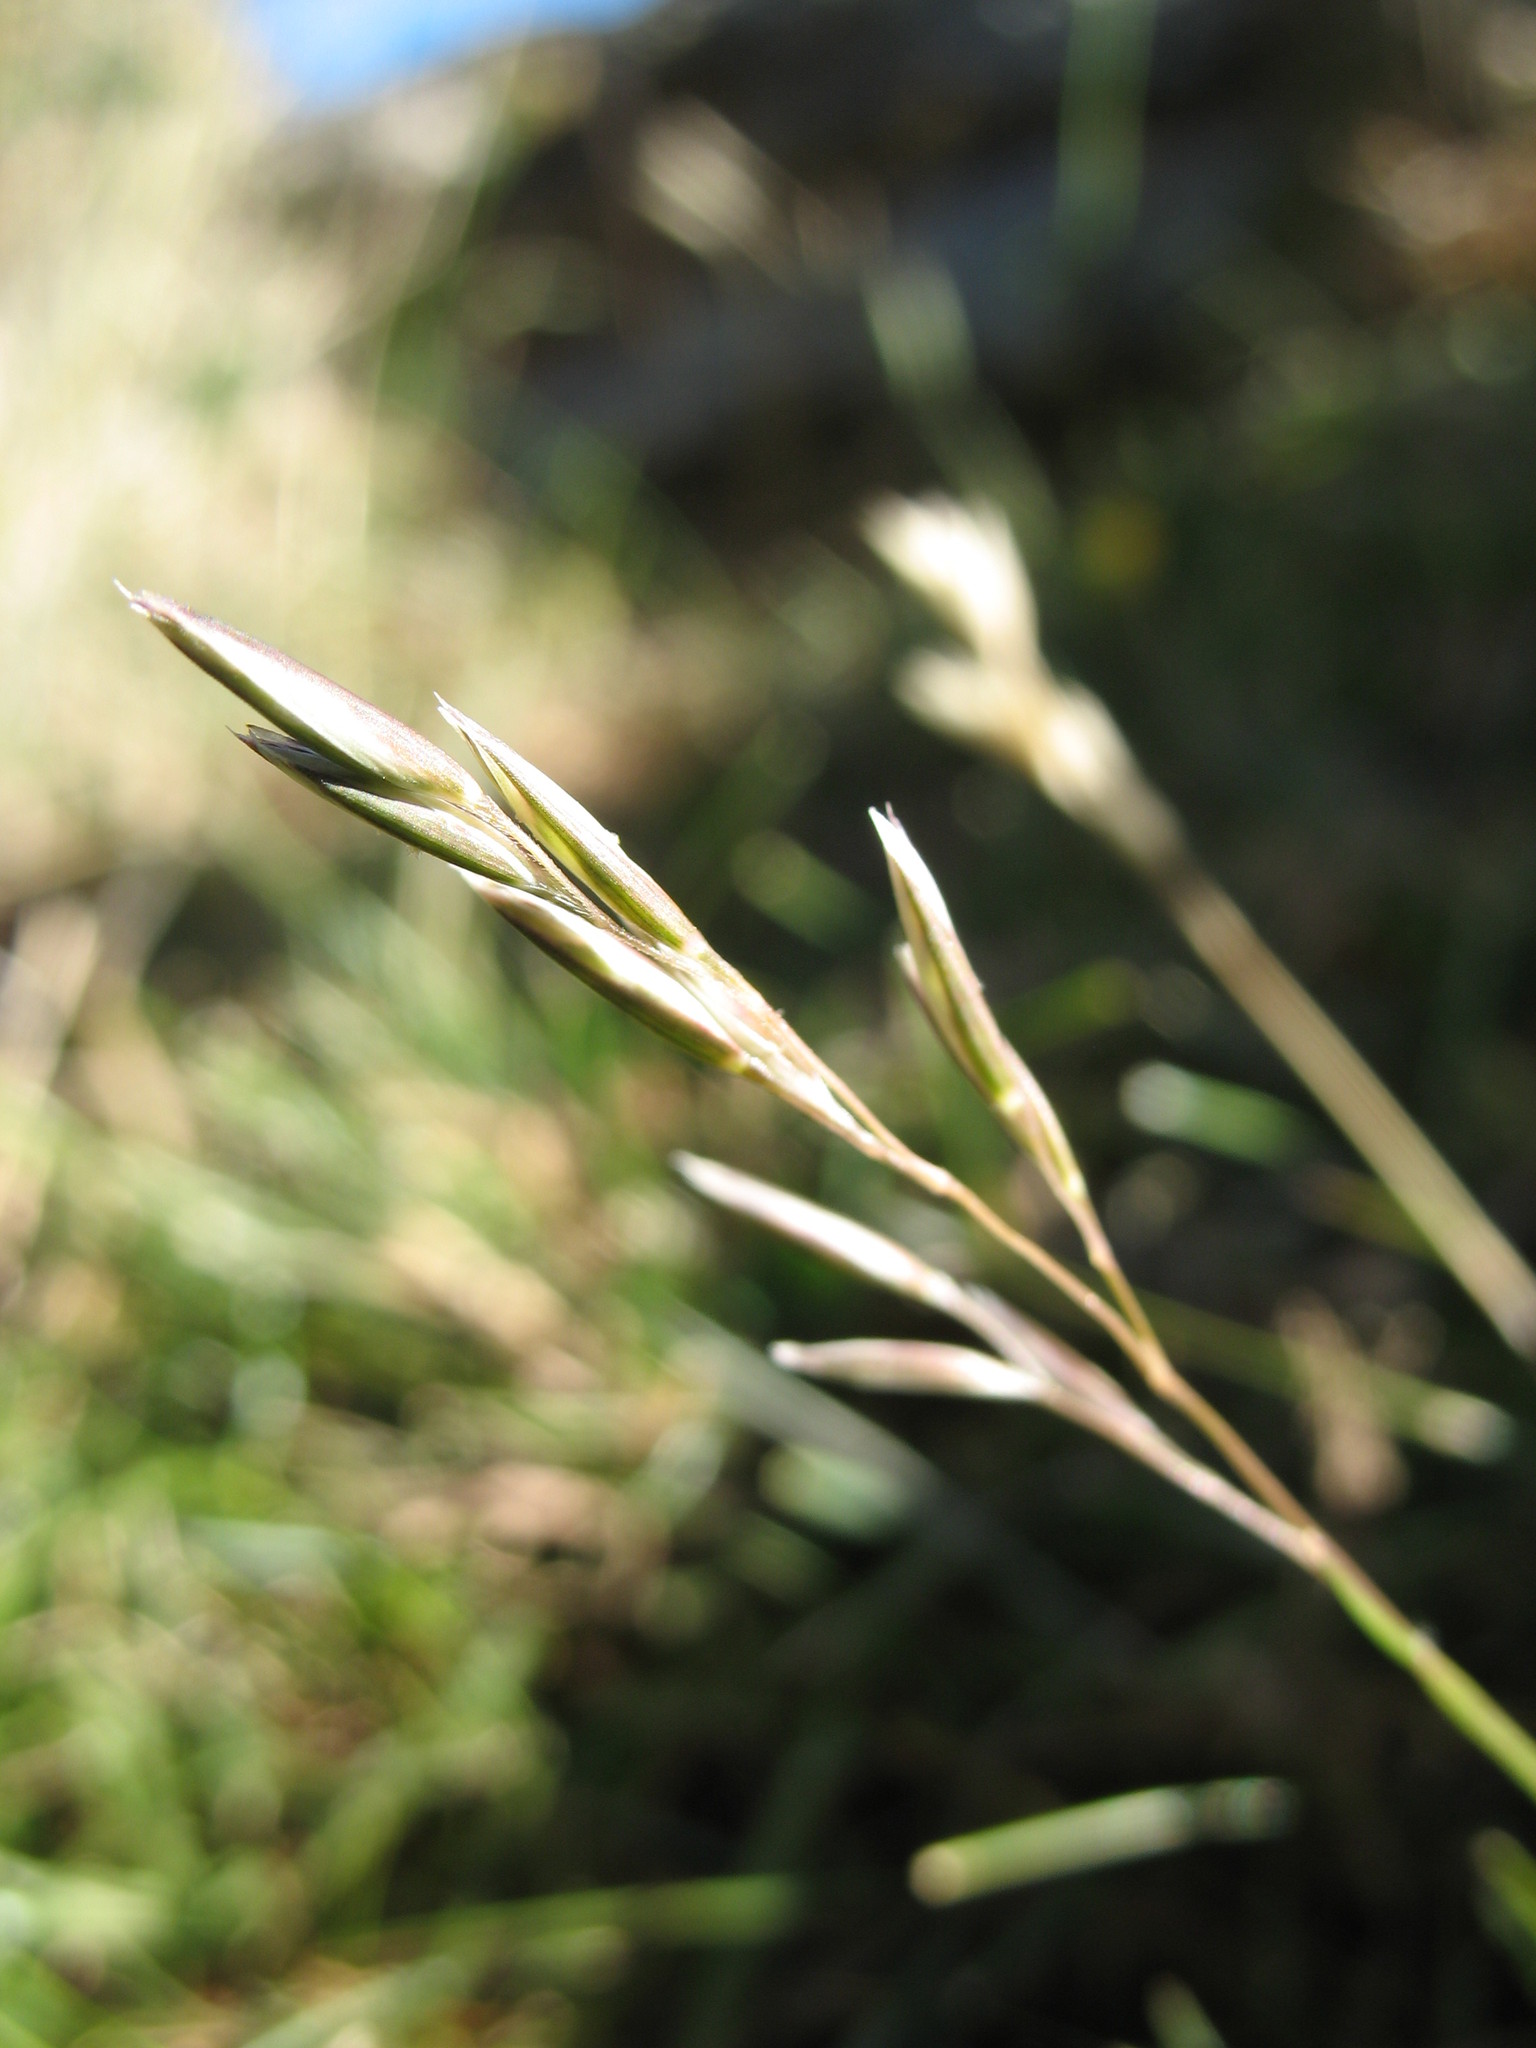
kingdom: Plantae
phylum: Tracheophyta
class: Liliopsida
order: Poales
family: Poaceae
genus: Rytidosperma
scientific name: Rytidosperma thomsonii
